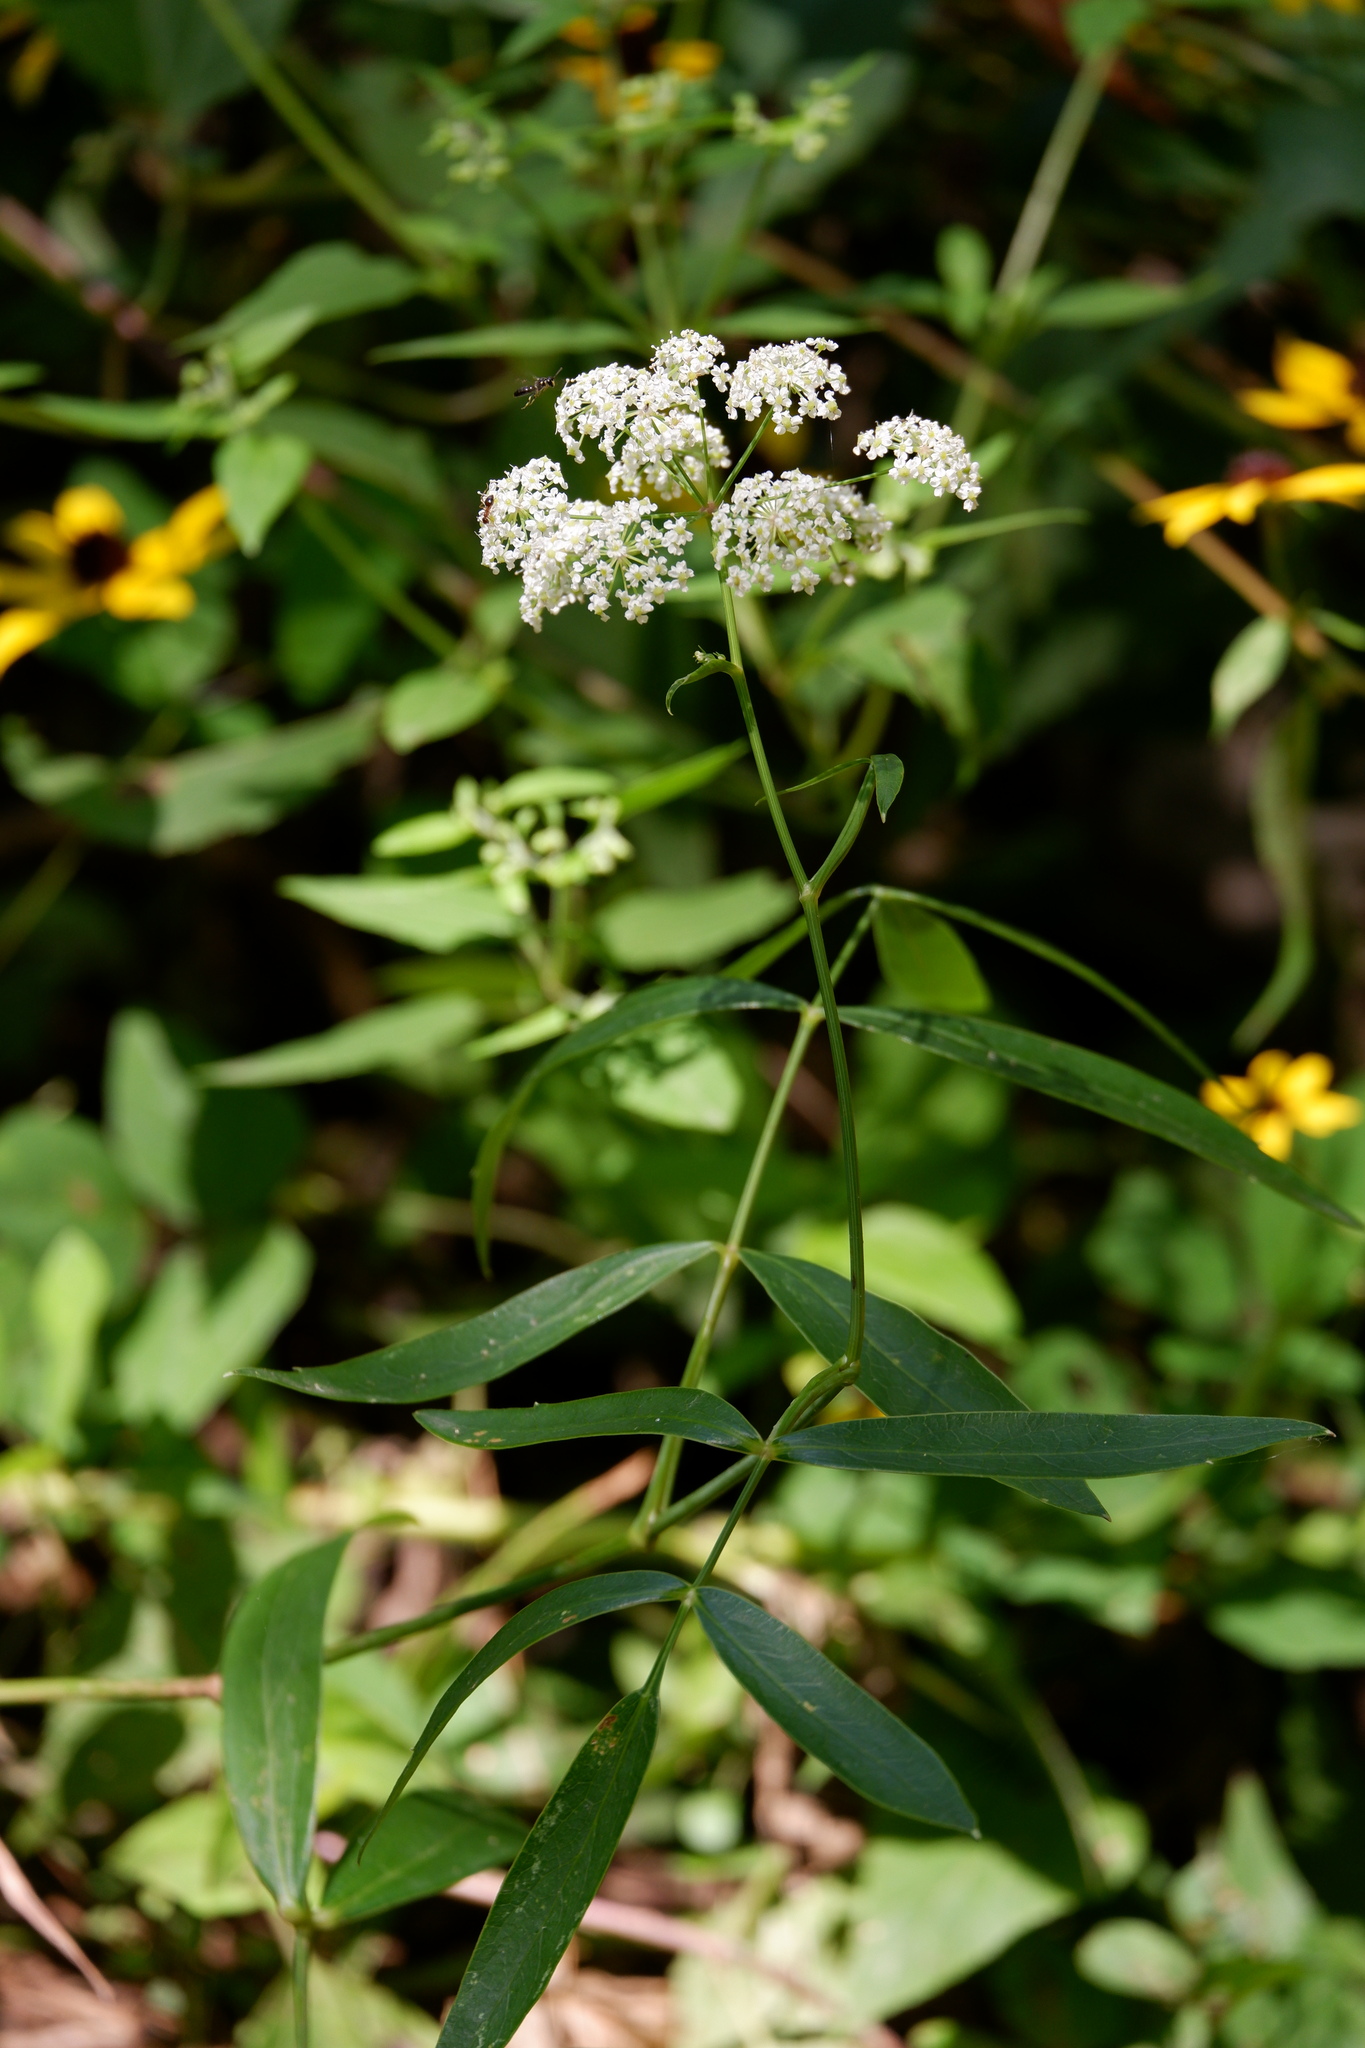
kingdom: Plantae
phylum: Tracheophyta
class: Magnoliopsida
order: Apiales
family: Apiaceae
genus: Oxypolis
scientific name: Oxypolis rigidior
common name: Cowbane
